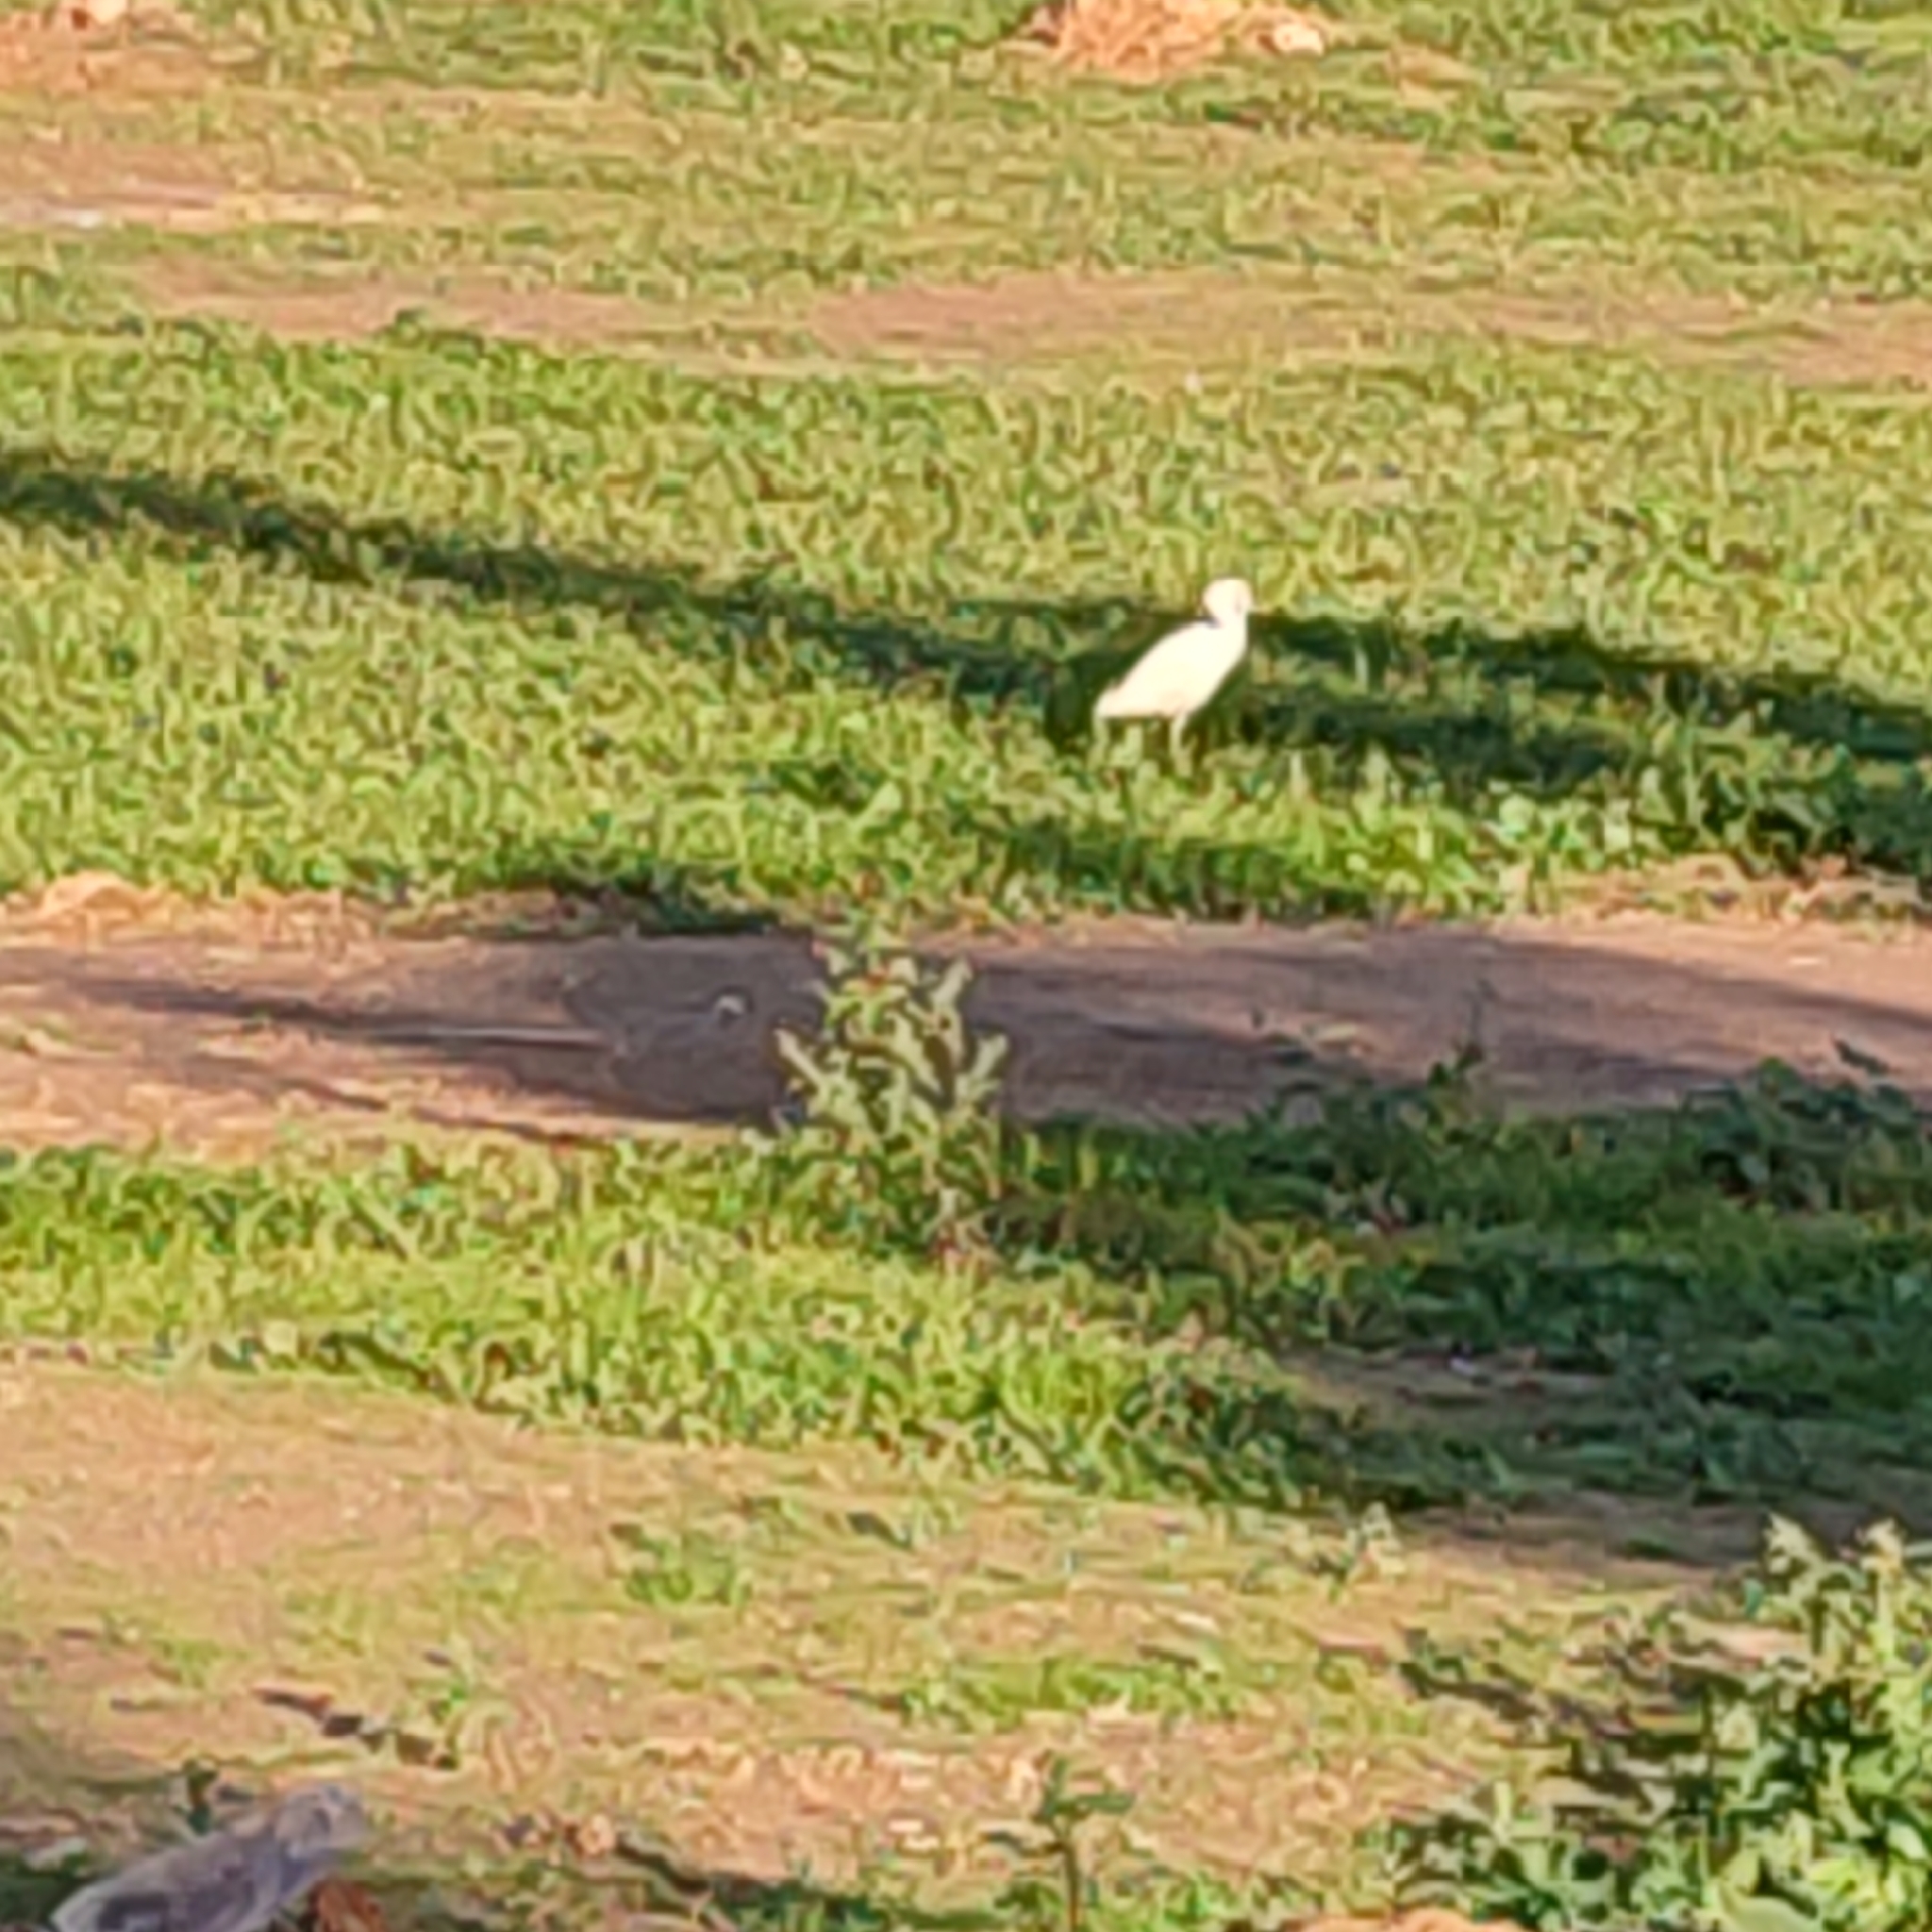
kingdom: Animalia
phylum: Chordata
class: Aves
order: Pelecaniformes
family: Ardeidae
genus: Bubulcus
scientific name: Bubulcus ibis
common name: Cattle egret
